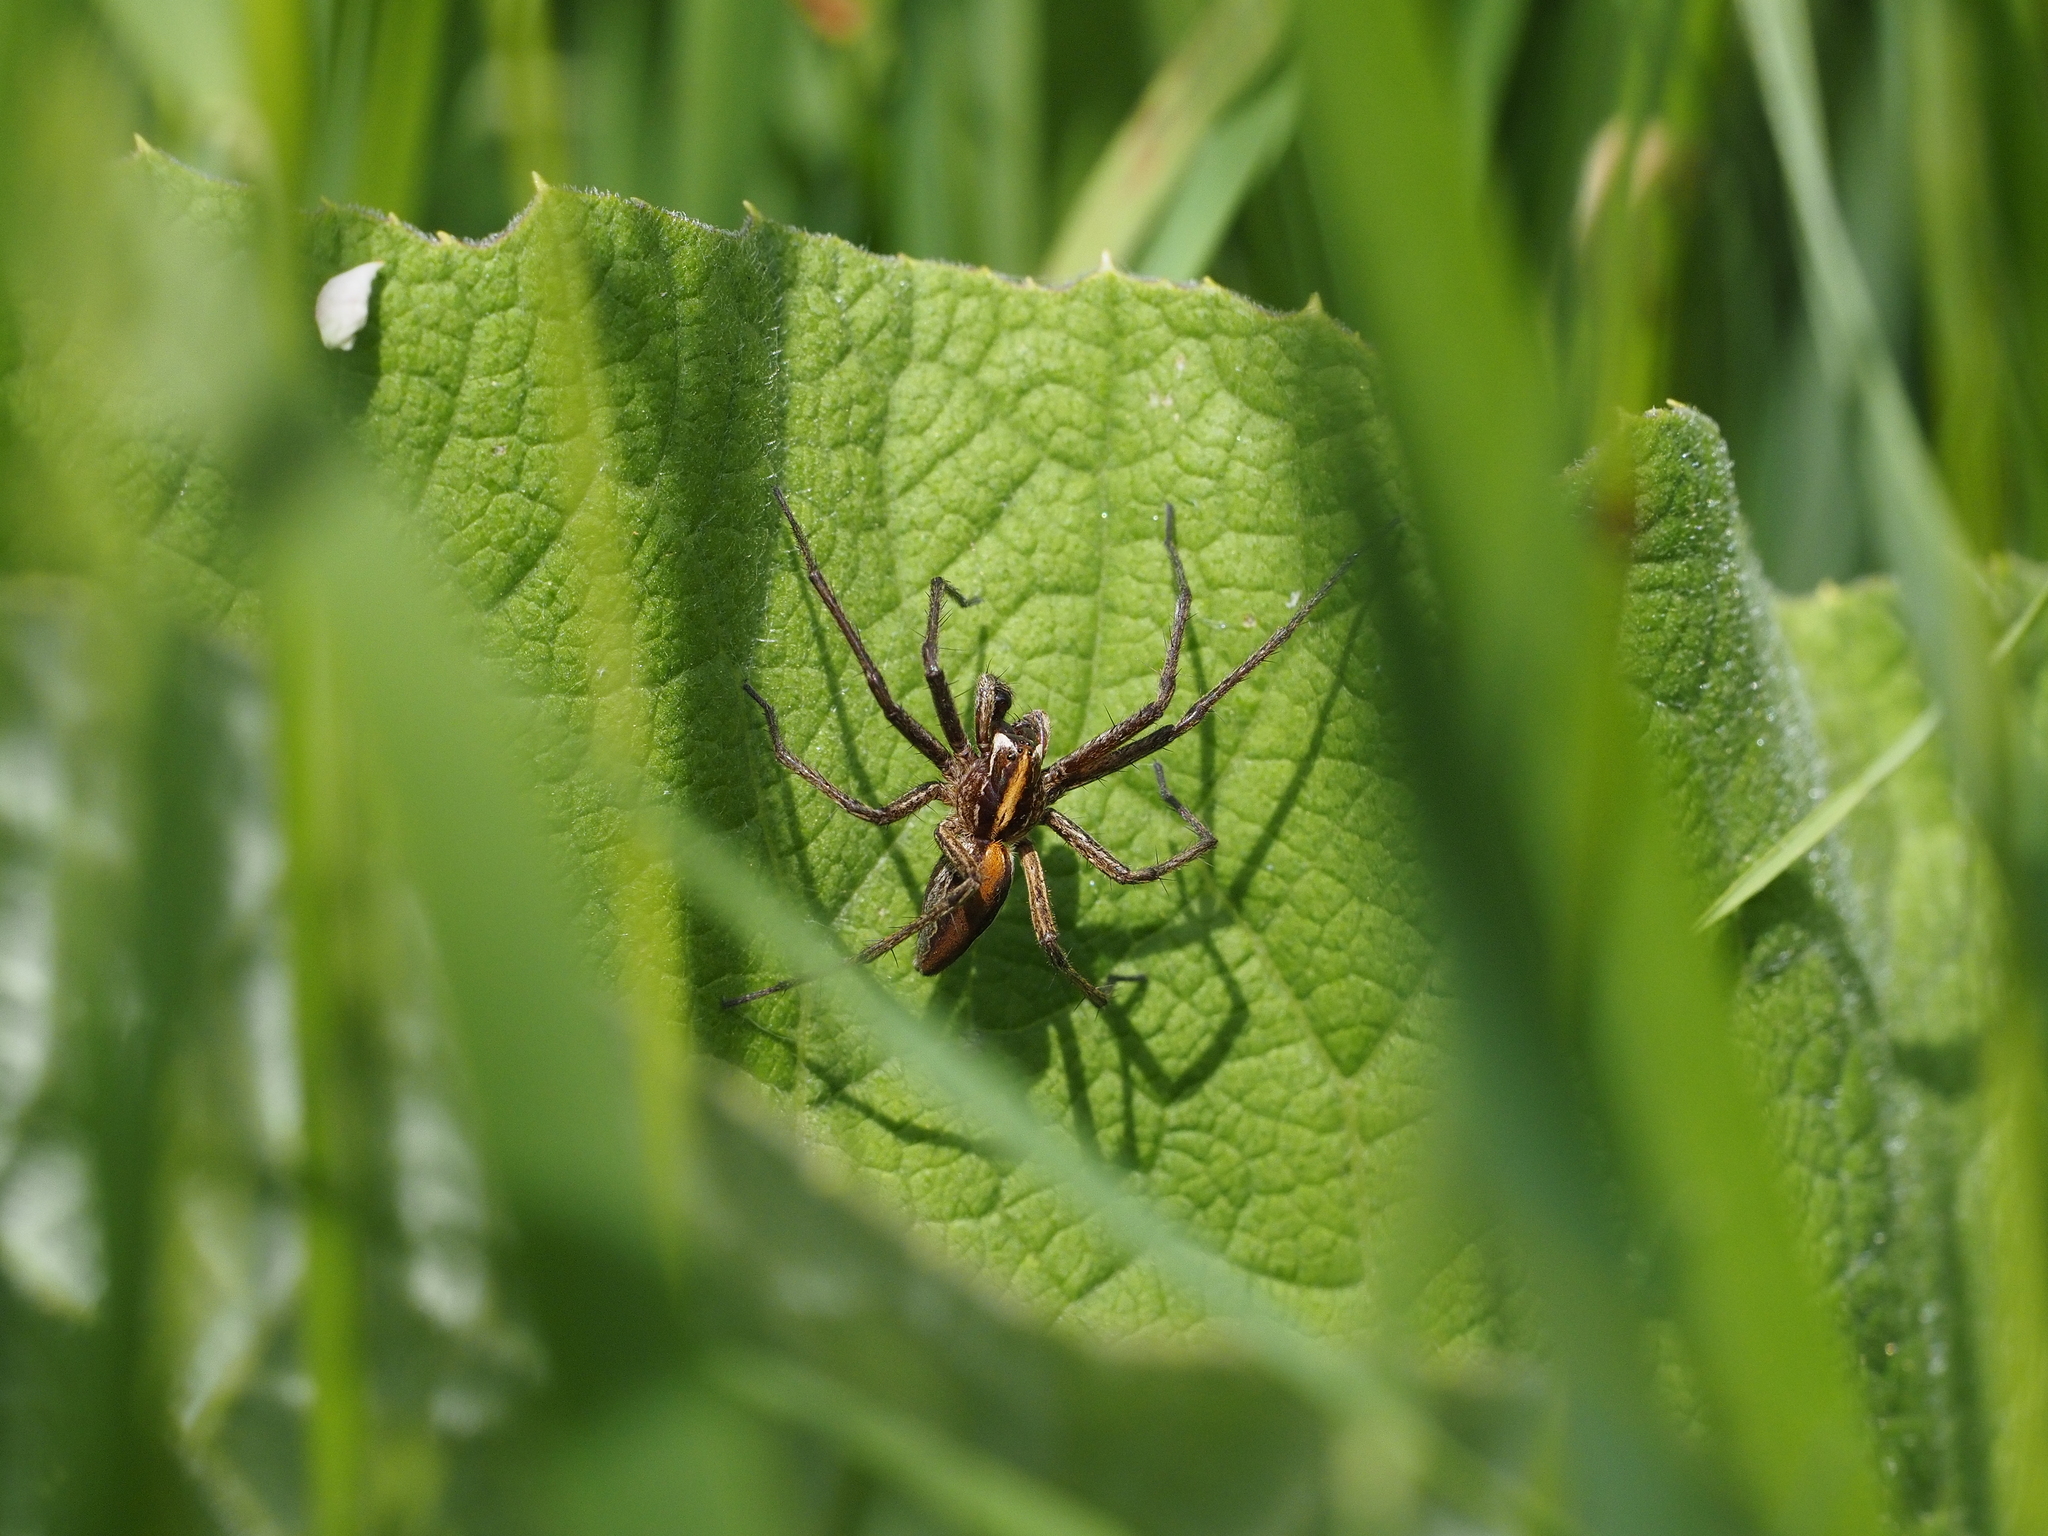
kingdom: Animalia
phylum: Arthropoda
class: Arachnida
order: Araneae
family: Pisauridae
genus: Pisaura
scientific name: Pisaura mirabilis
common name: Tent spider
